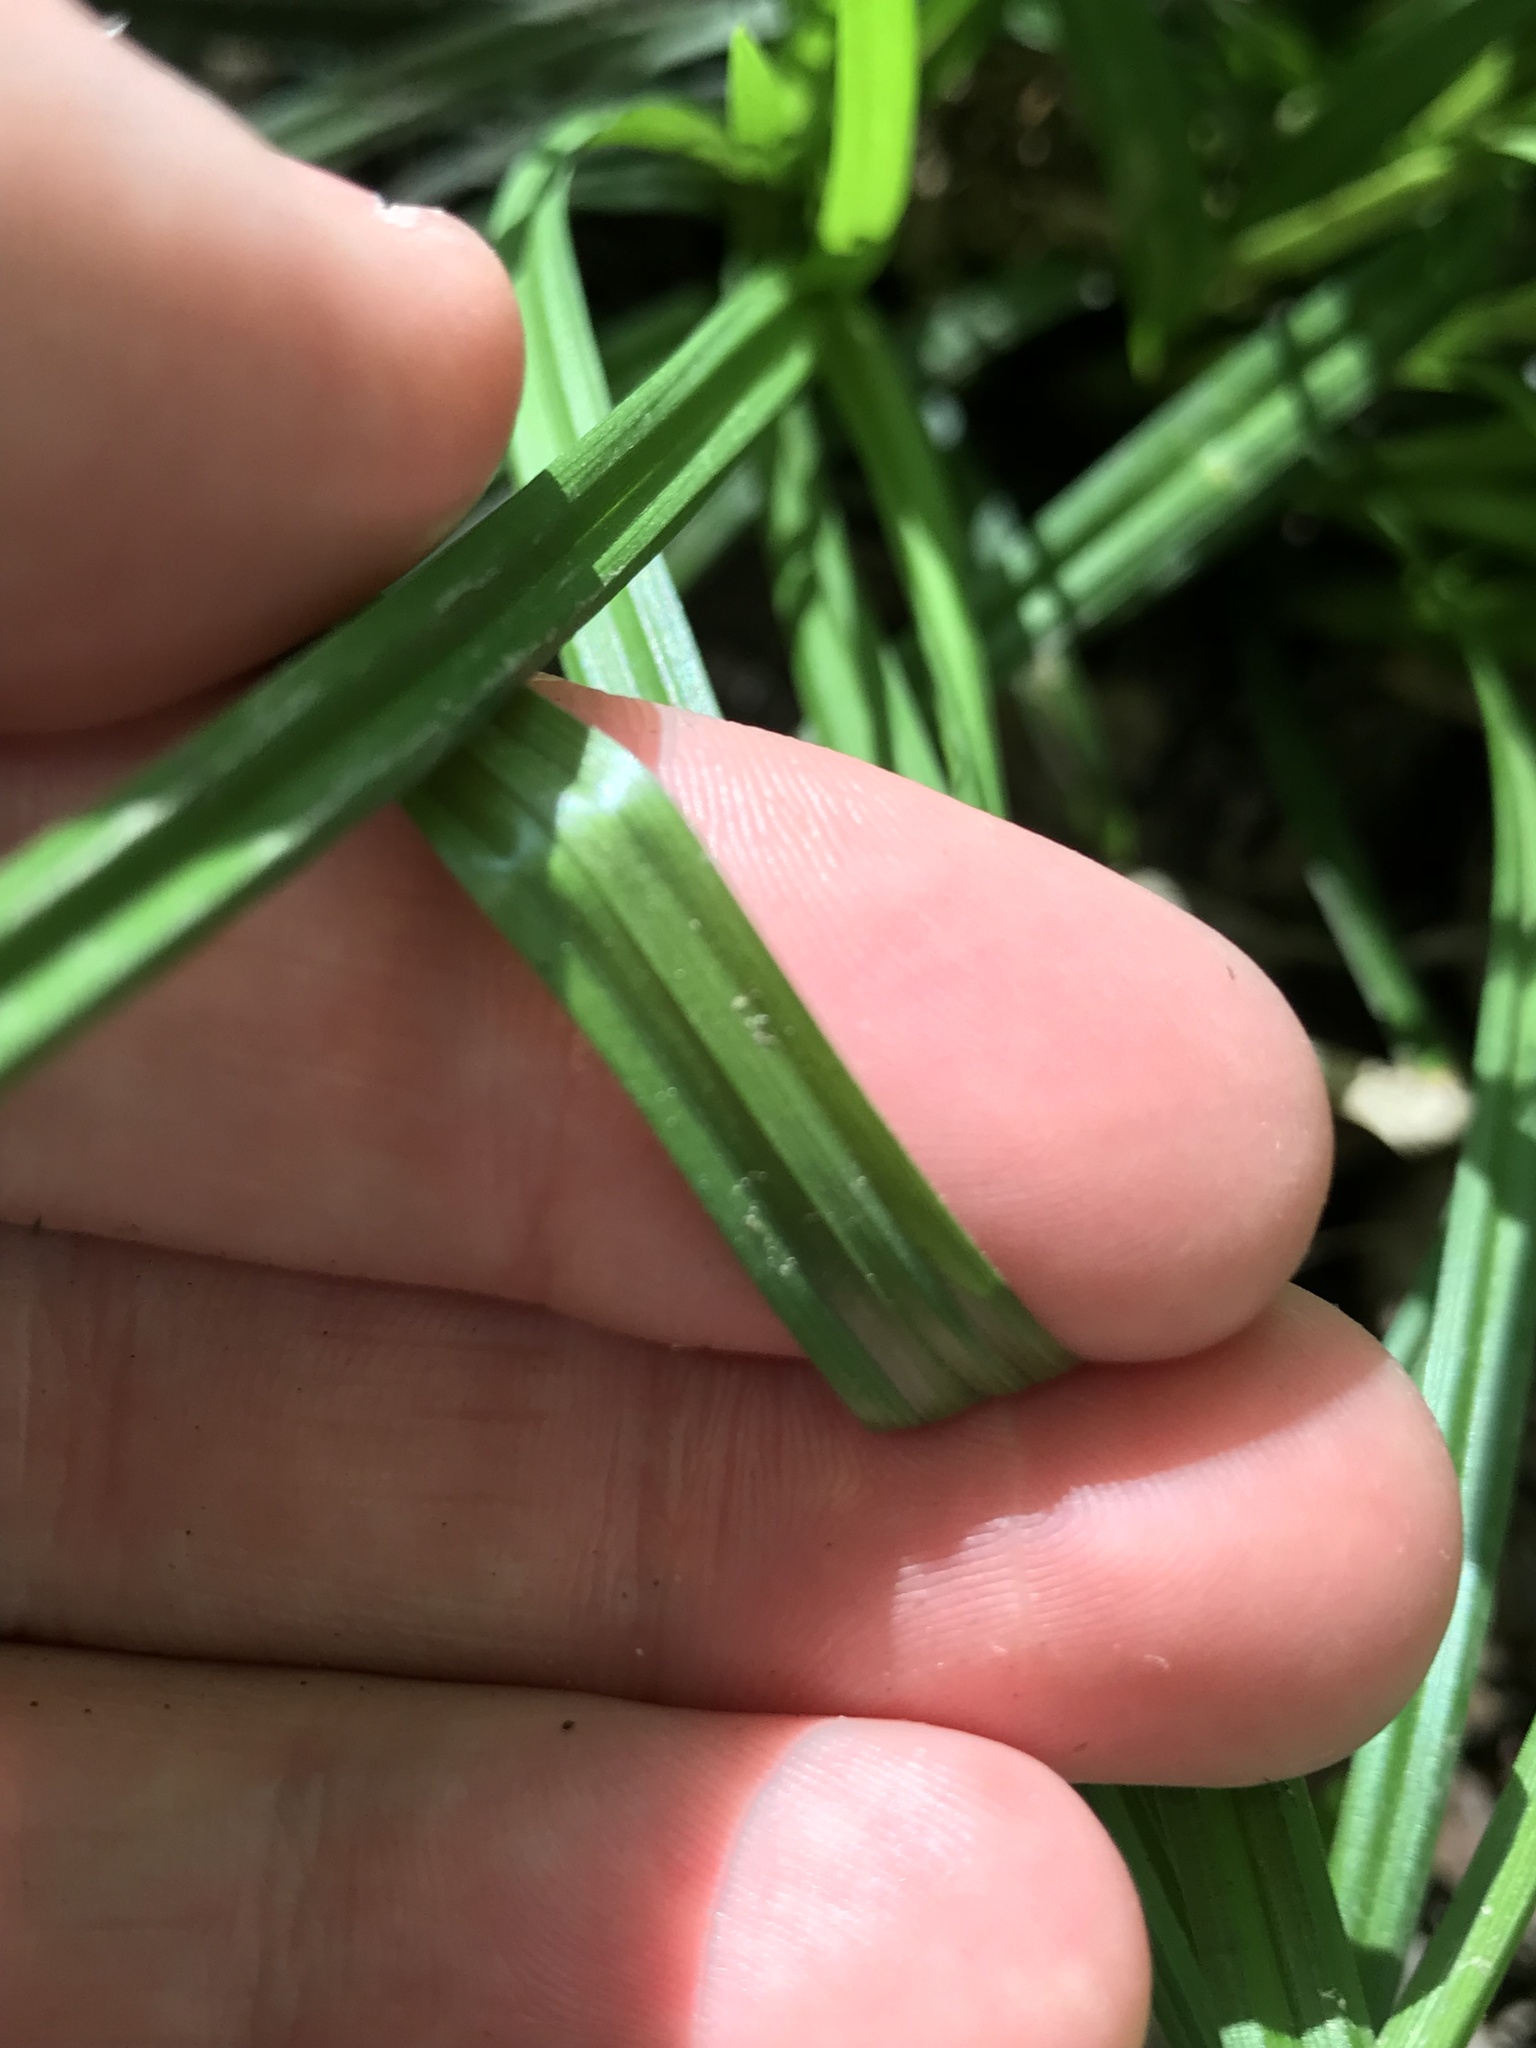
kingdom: Plantae
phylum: Tracheophyta
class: Liliopsida
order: Poales
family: Cyperaceae
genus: Carex
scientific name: Carex sylvatica
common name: Wood-sedge
